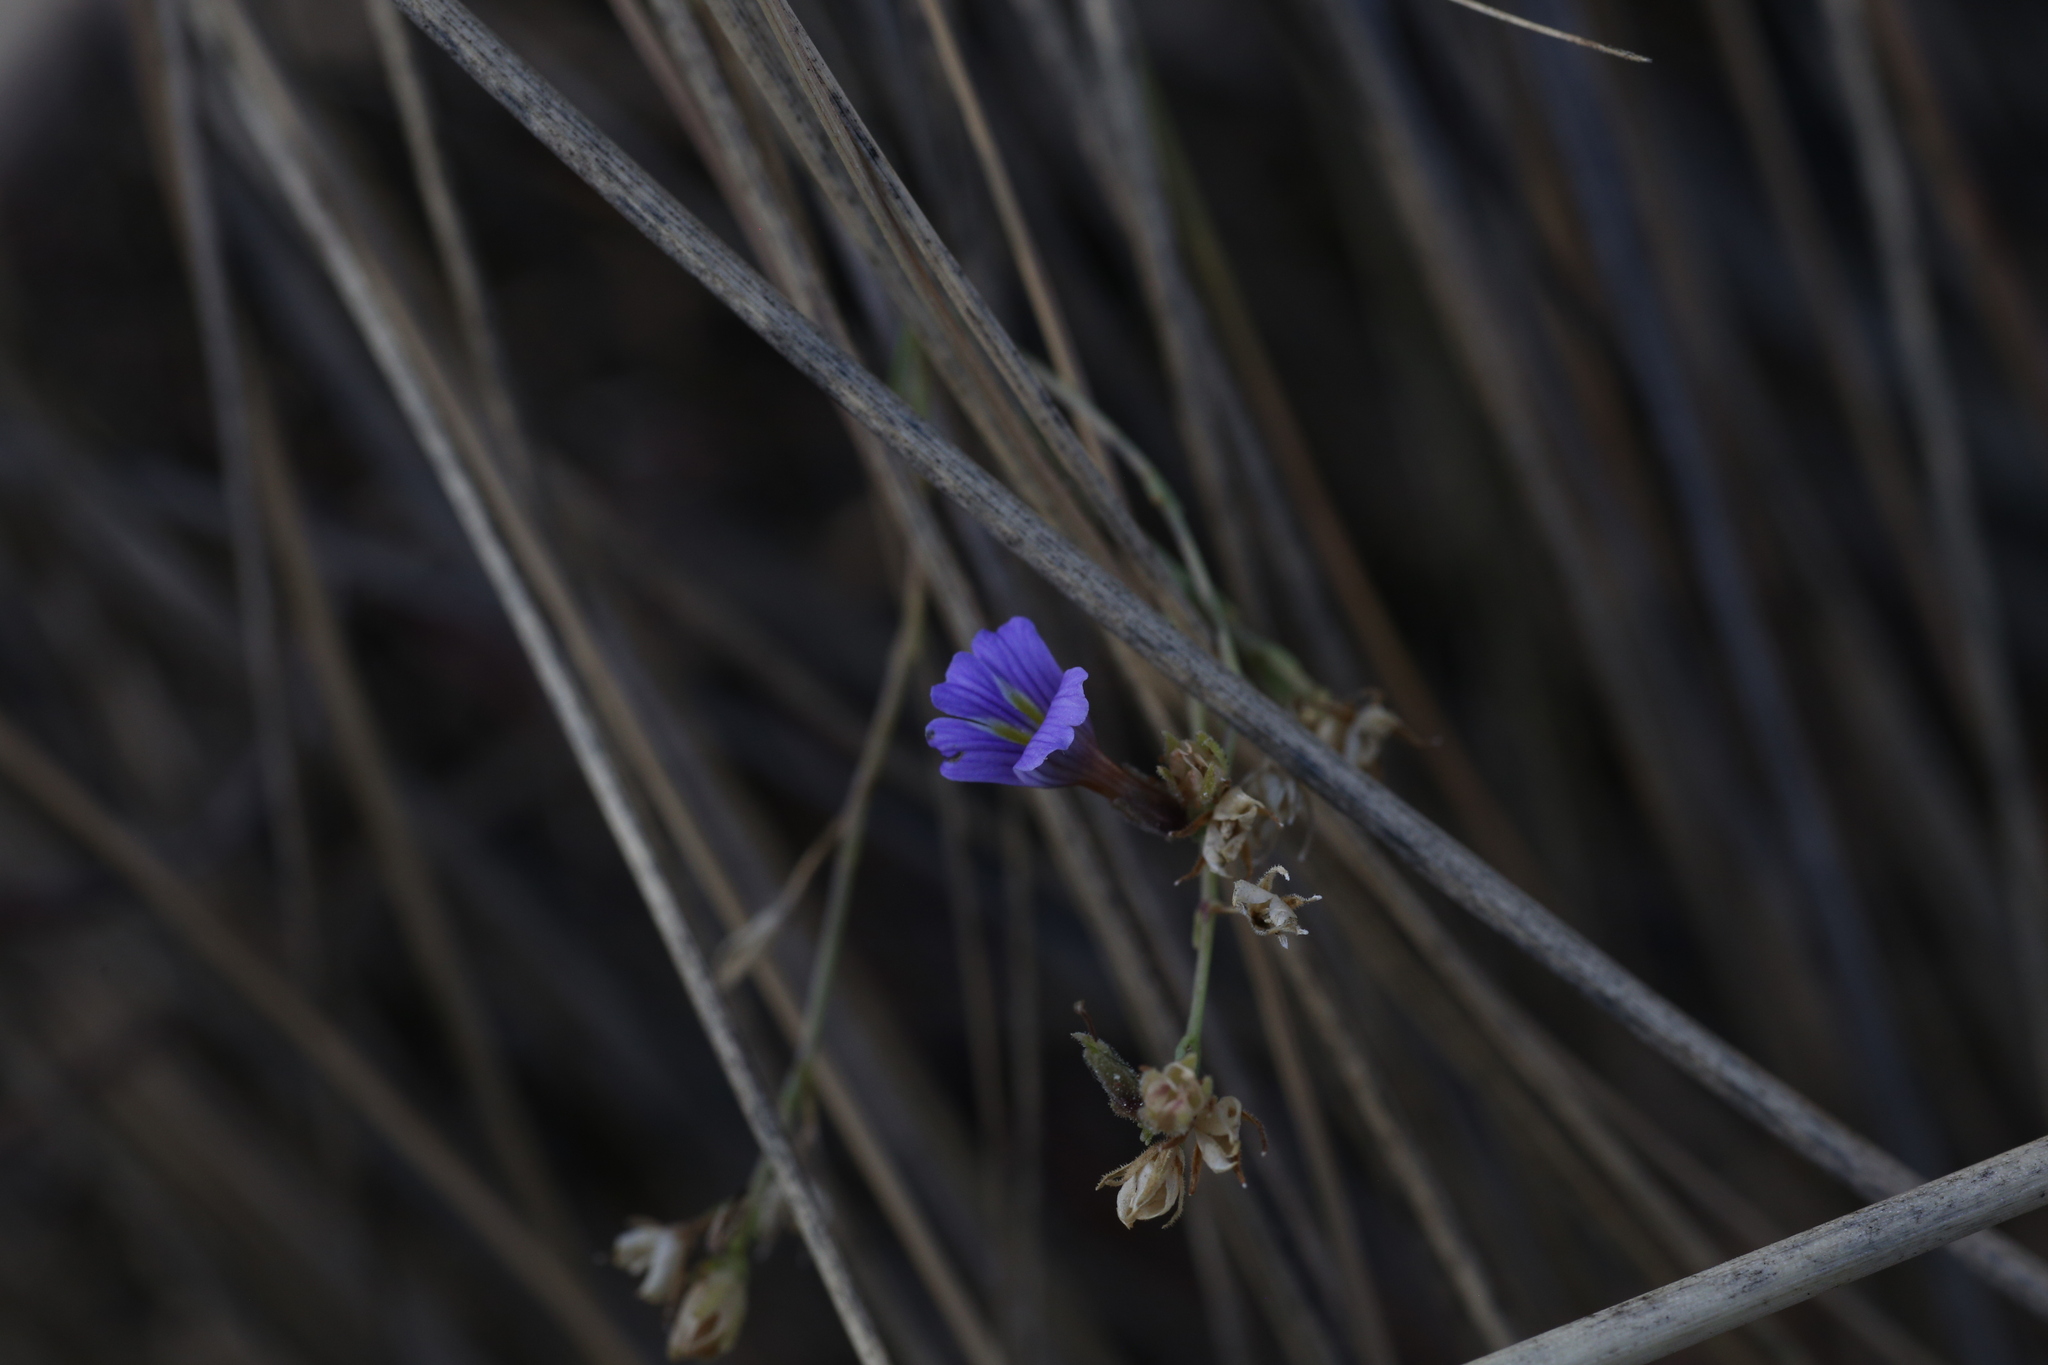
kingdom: Plantae
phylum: Tracheophyta
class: Magnoliopsida
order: Lamiales
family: Plantaginaceae
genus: Stemodia
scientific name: Stemodia tephropelina
